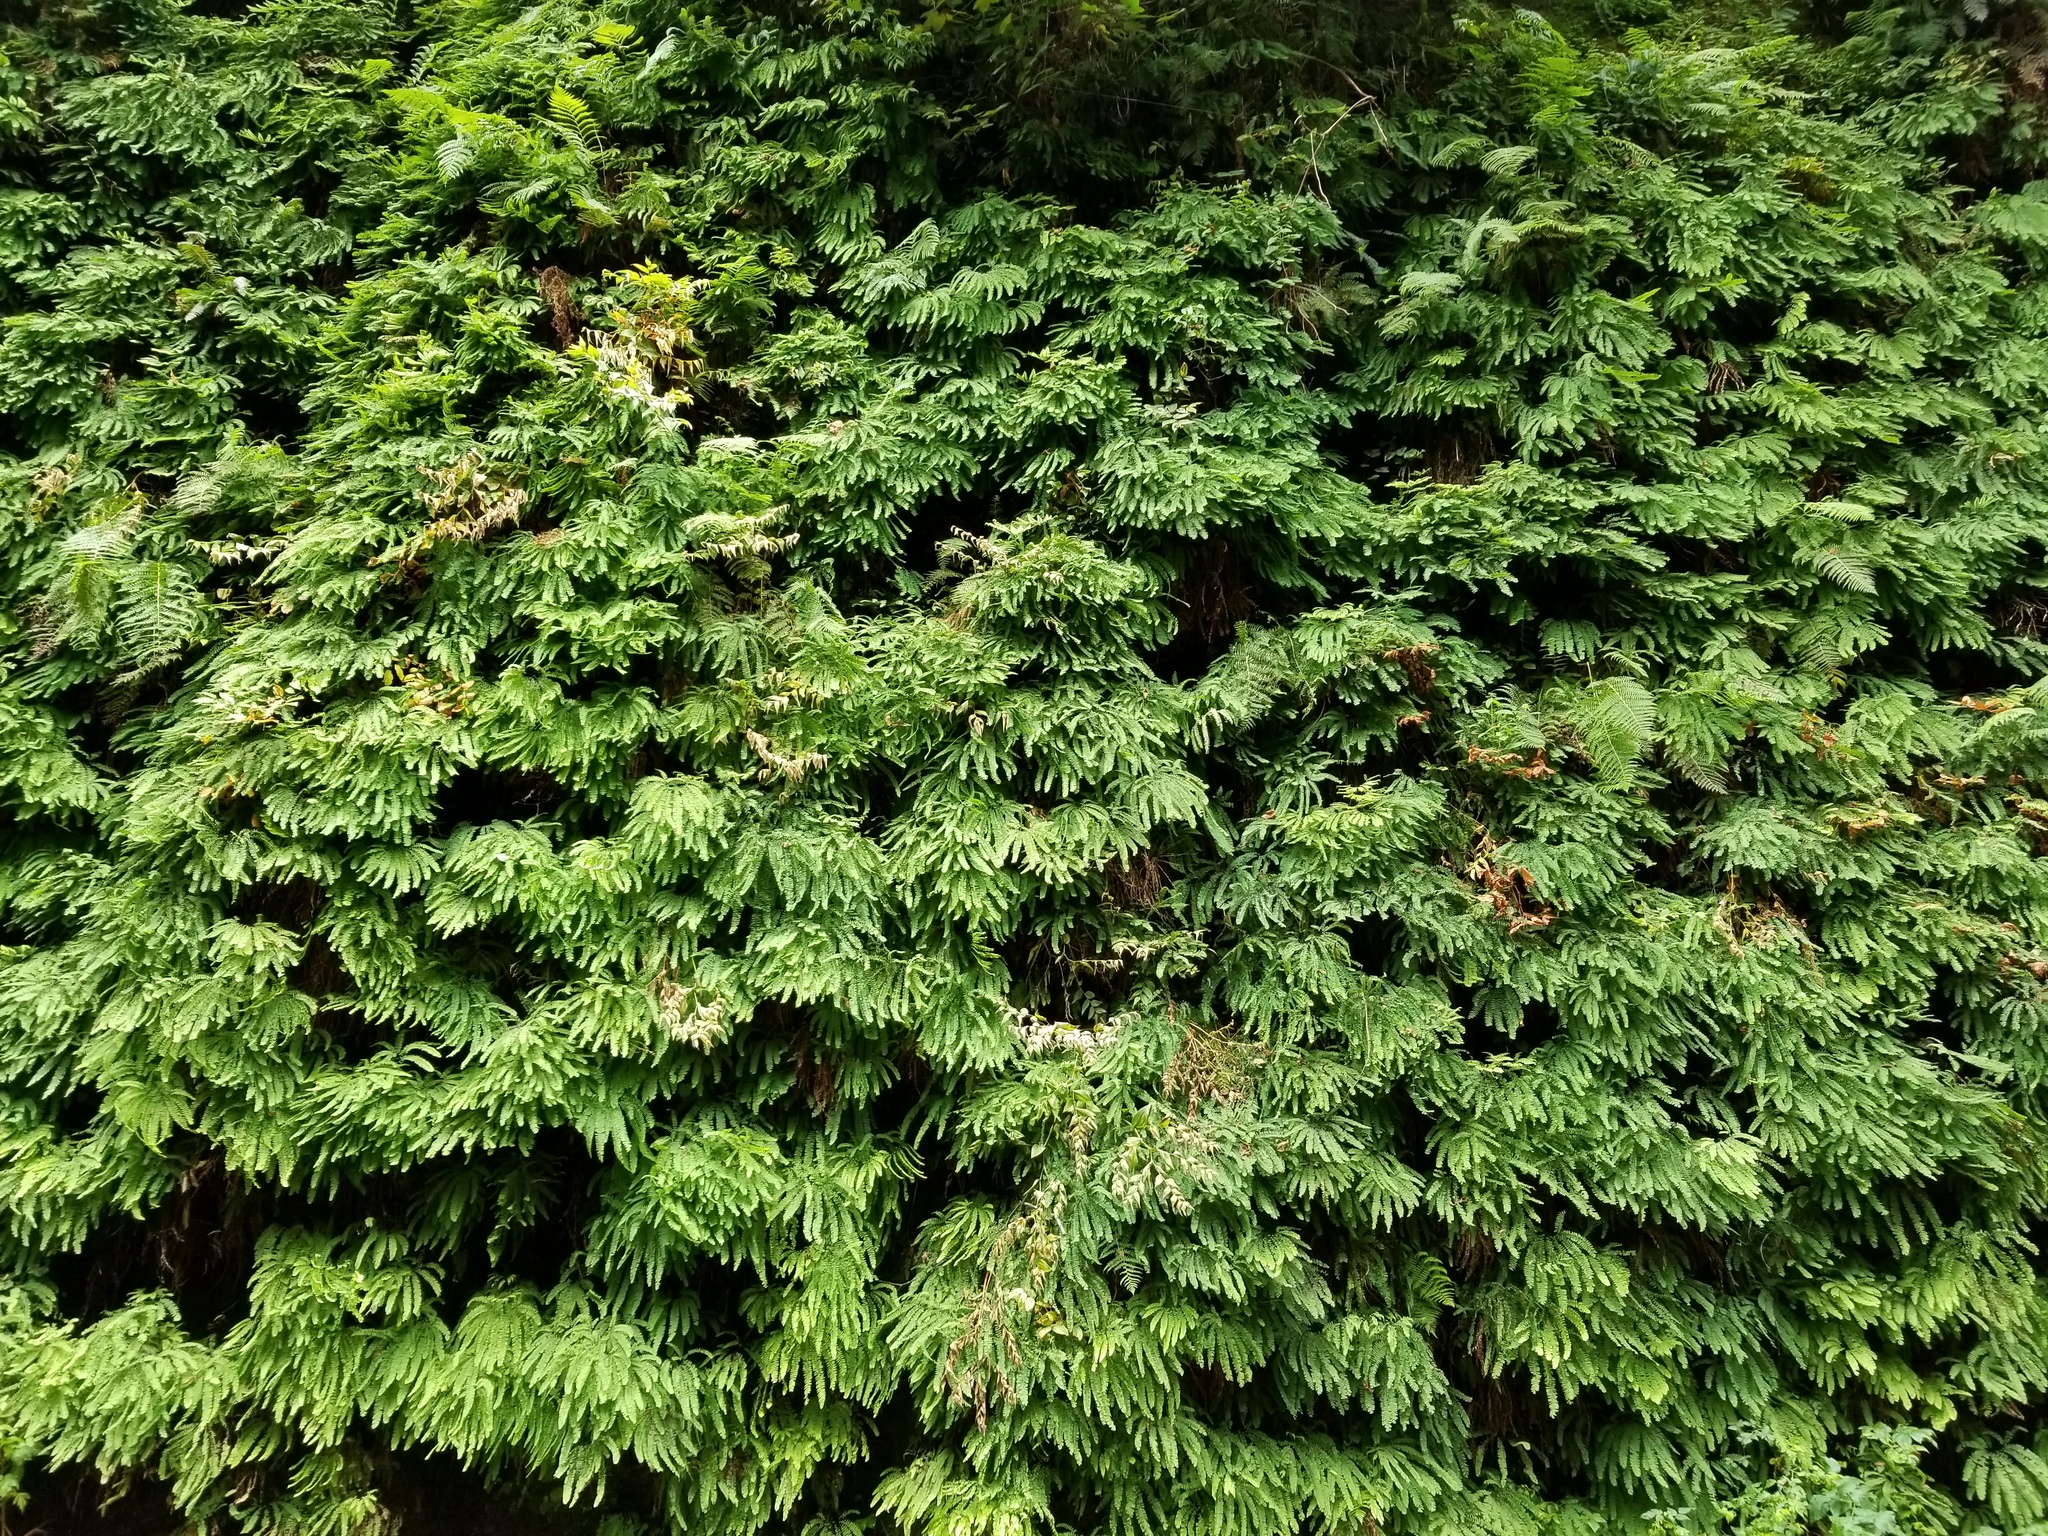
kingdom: Plantae
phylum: Tracheophyta
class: Polypodiopsida
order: Polypodiales
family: Pteridaceae
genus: Adiantum
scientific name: Adiantum aleuticum
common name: Aleutian maidenhair fern
